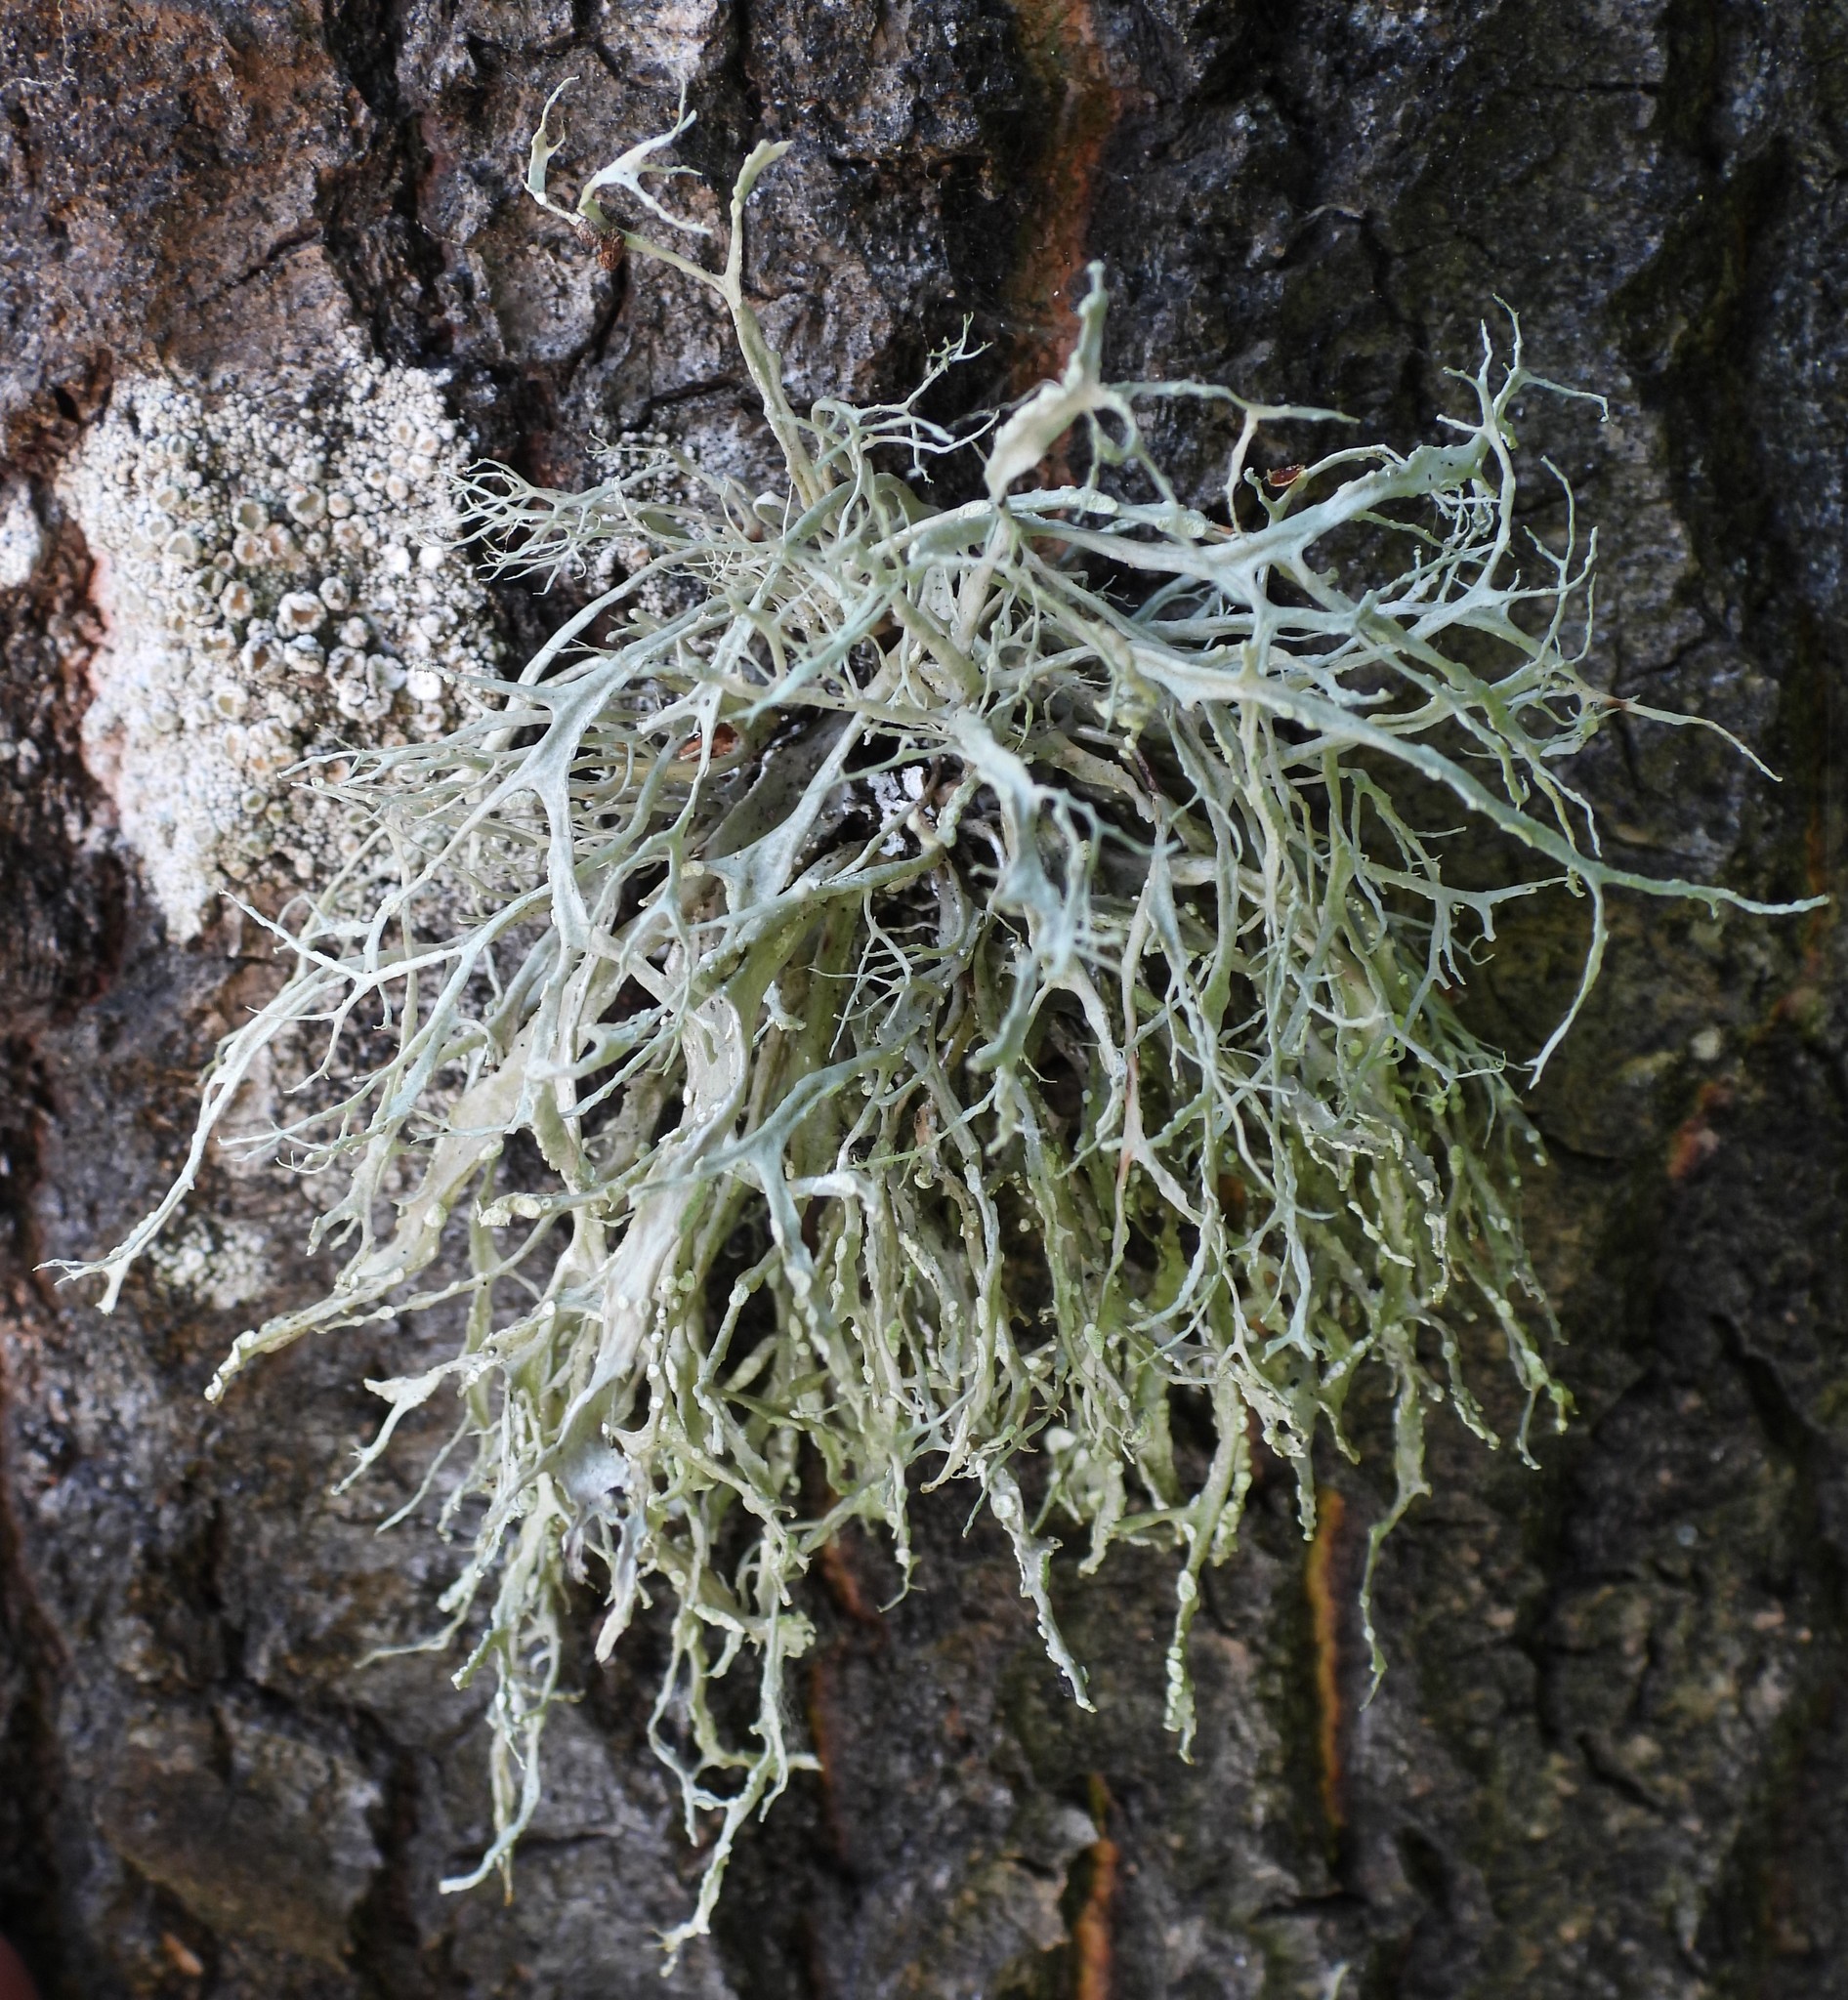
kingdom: Fungi
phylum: Ascomycota
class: Lecanoromycetes
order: Lecanorales
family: Ramalinaceae
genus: Ramalina
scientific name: Ramalina farinacea
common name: Farinose cartilage lichen
